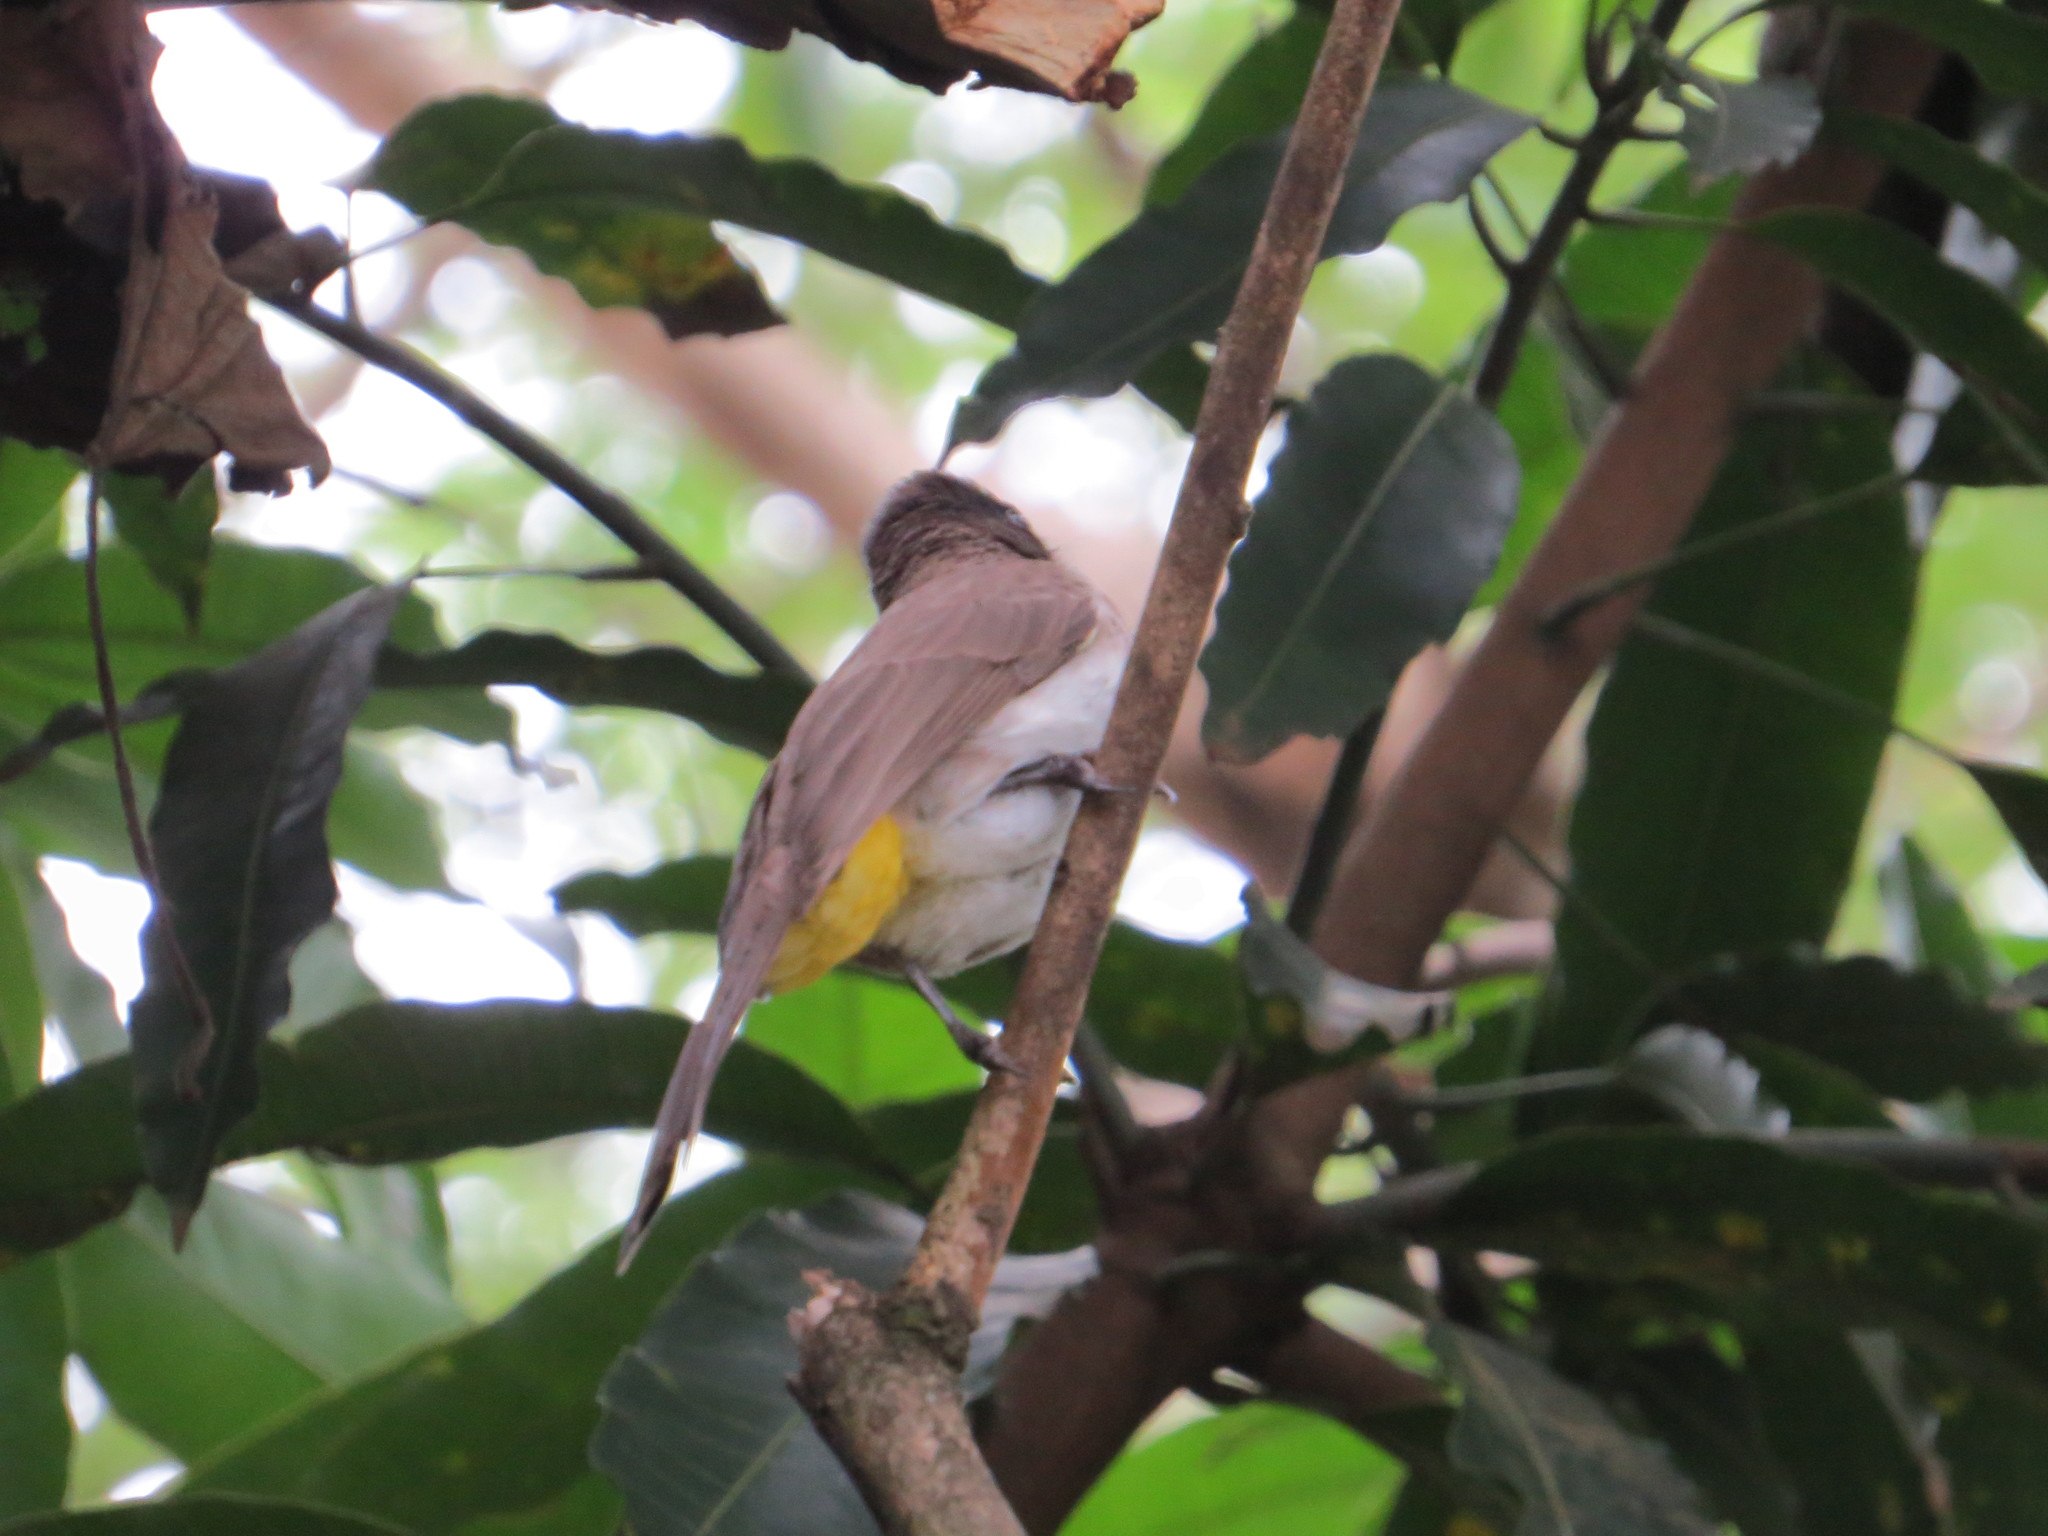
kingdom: Animalia
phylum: Chordata
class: Aves
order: Passeriformes
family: Pycnonotidae
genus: Pycnonotus
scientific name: Pycnonotus barbatus
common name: Common bulbul
